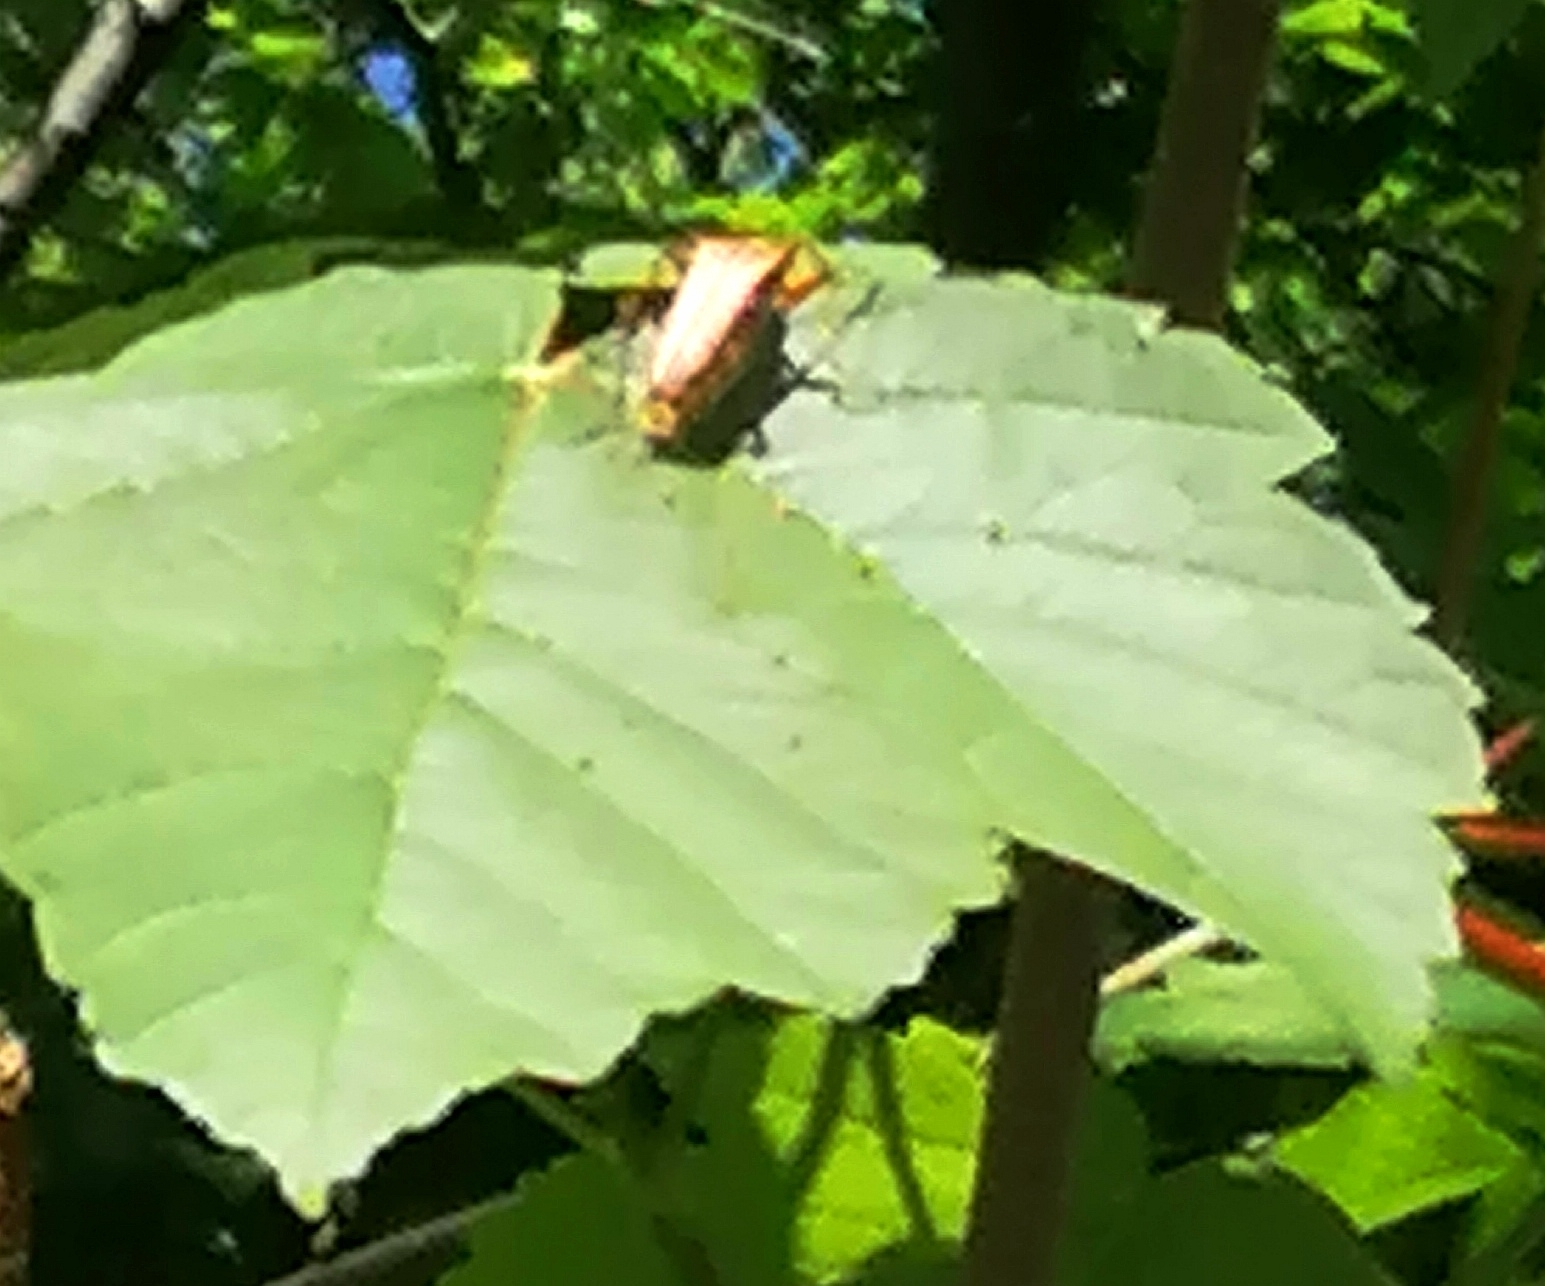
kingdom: Animalia
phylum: Arthropoda
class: Insecta
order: Coleoptera
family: Cerambycidae
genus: Stenocorus
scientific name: Stenocorus meridianus
